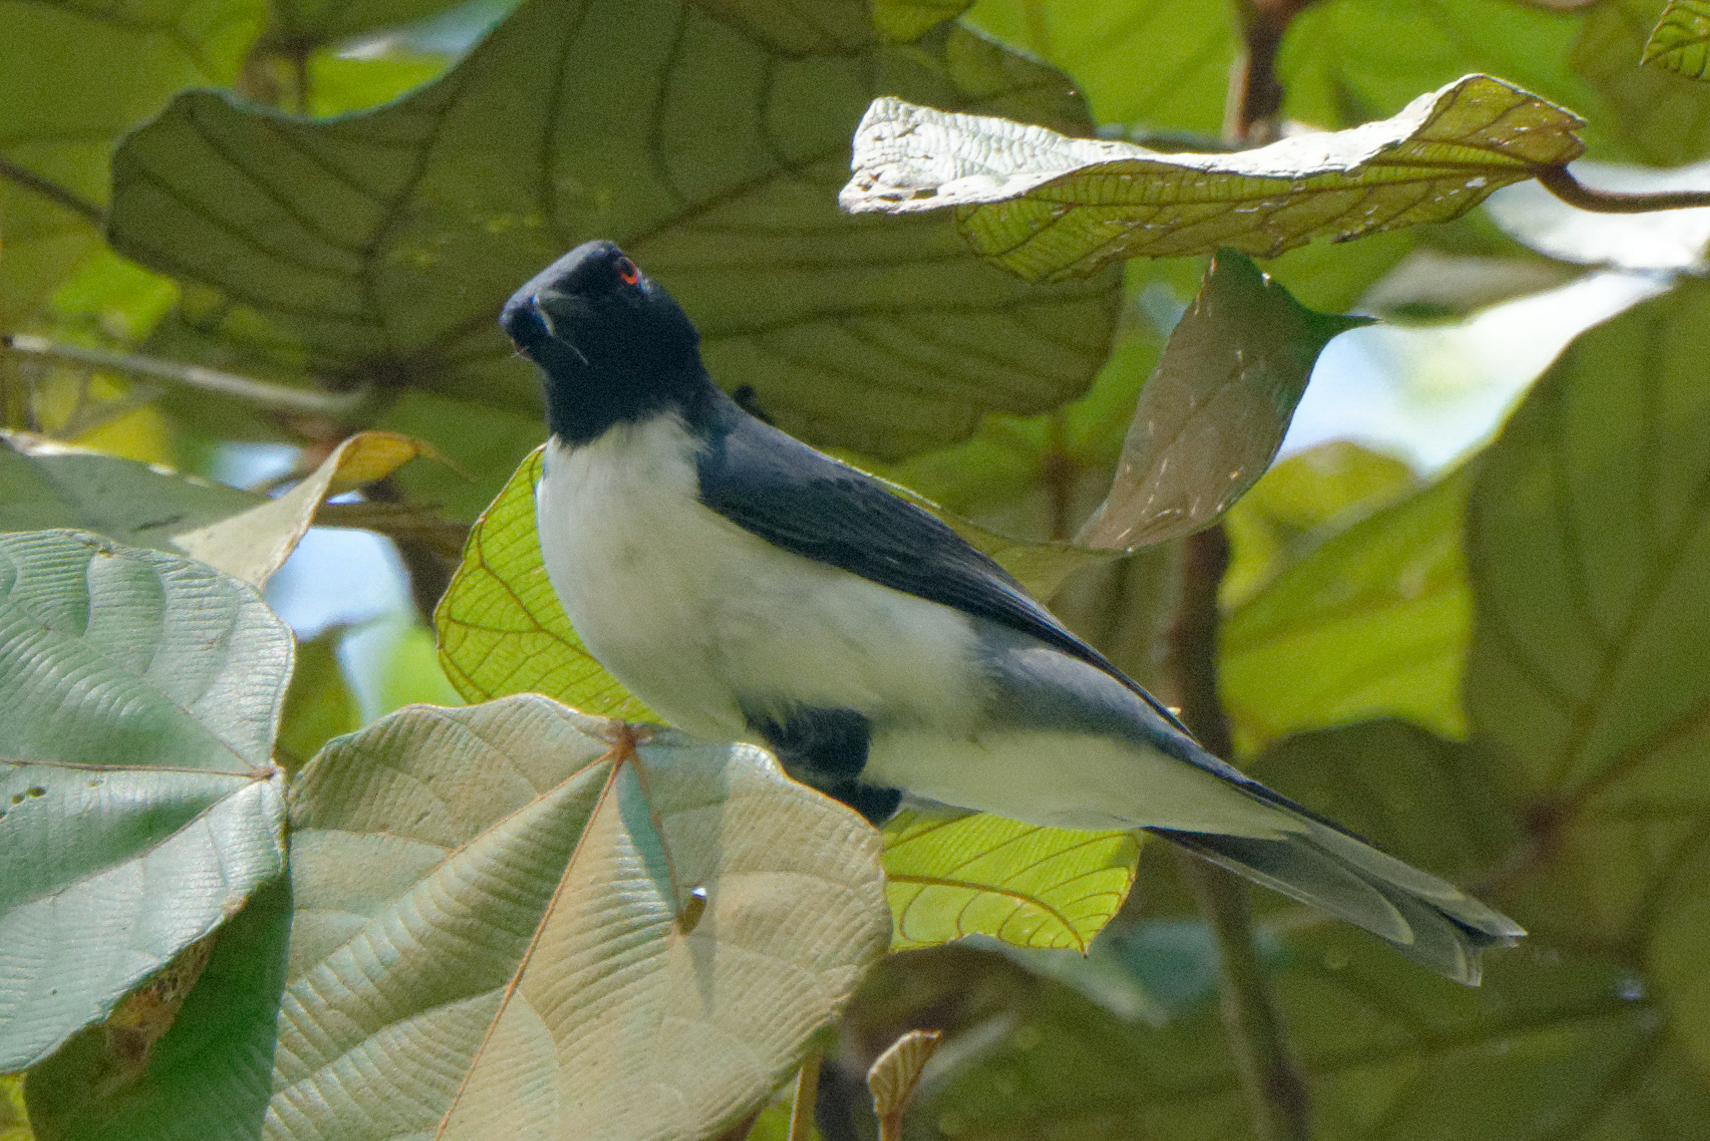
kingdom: Animalia
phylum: Chordata
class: Aves
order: Passeriformes
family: Campephagidae
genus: Celebesia
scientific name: Celebesia abbotti
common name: Pygmy cuckooshrike
